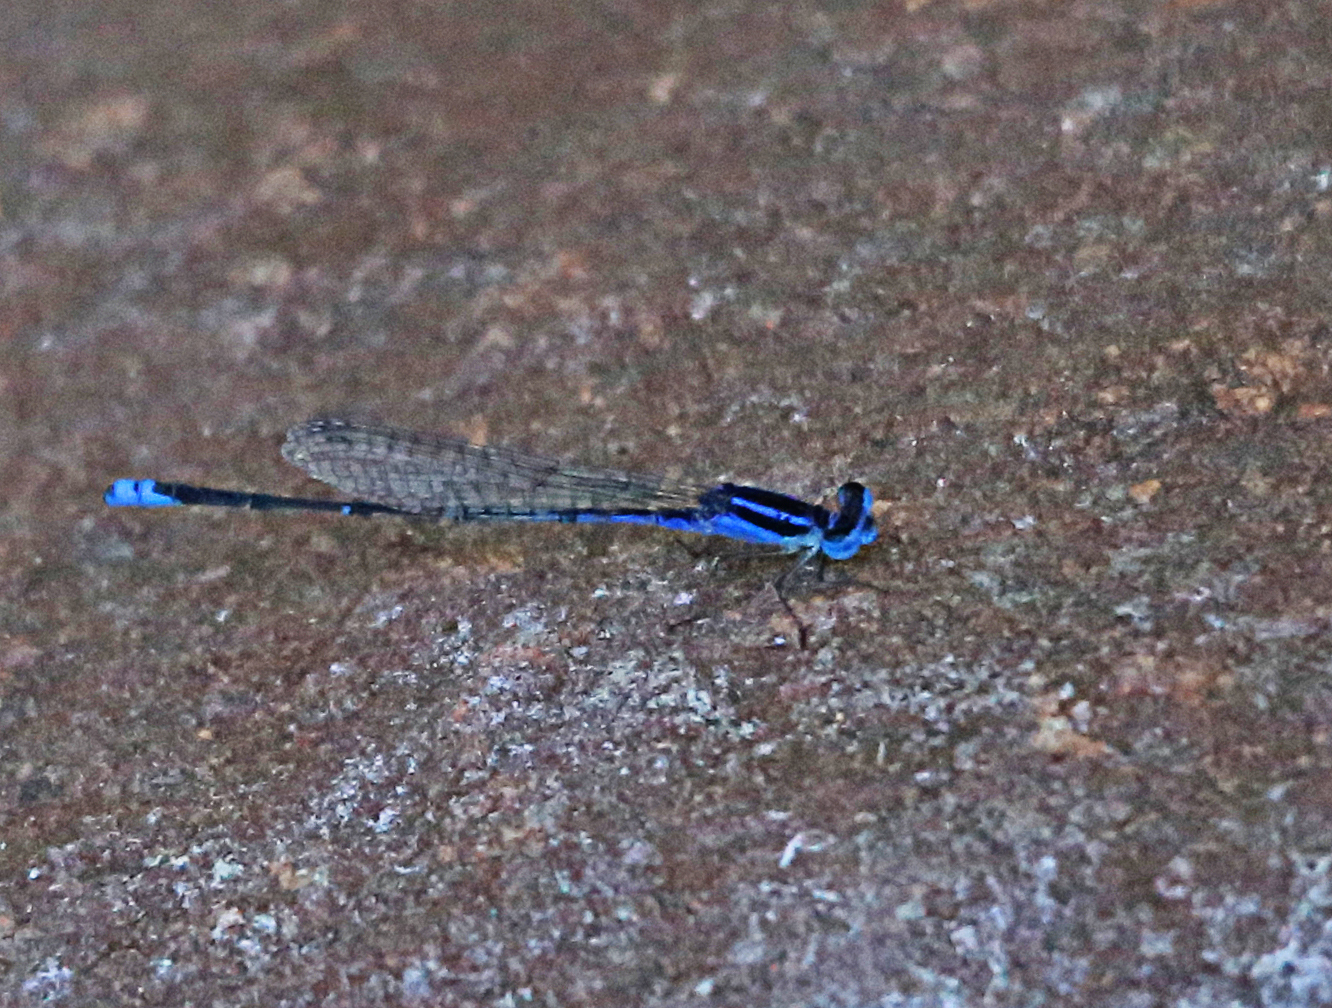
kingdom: Animalia
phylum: Arthropoda
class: Insecta
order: Odonata
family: Coenagrionidae
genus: Azuragrion
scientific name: Azuragrion nigridorsum
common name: Sailing azuret
